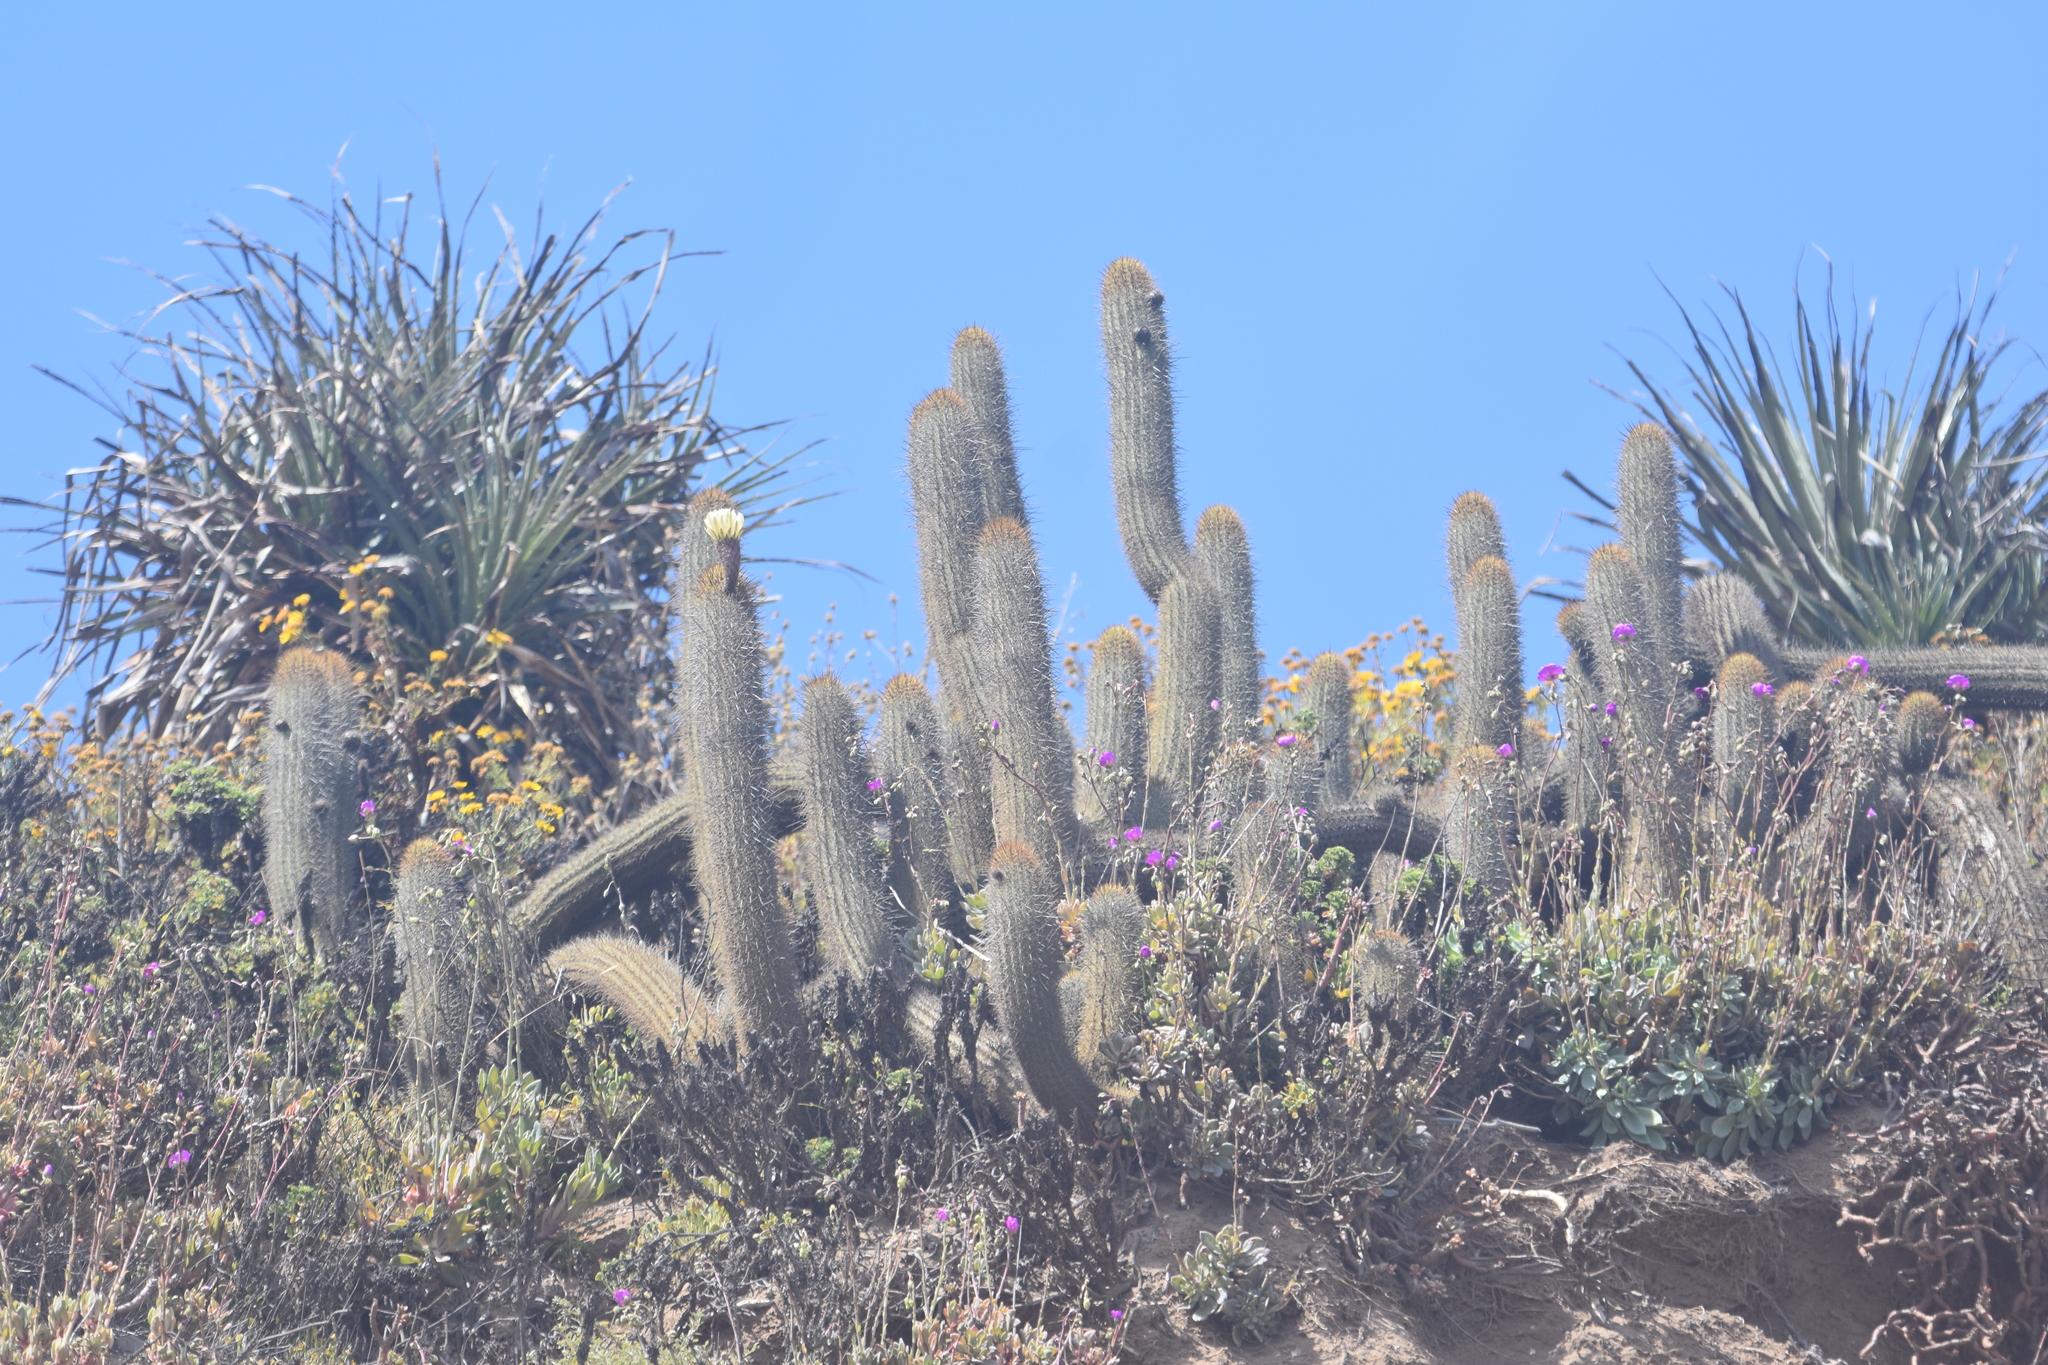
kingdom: Plantae
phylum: Tracheophyta
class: Magnoliopsida
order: Caryophyllales
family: Cactaceae
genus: Leucostele
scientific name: Leucostele chiloensis
